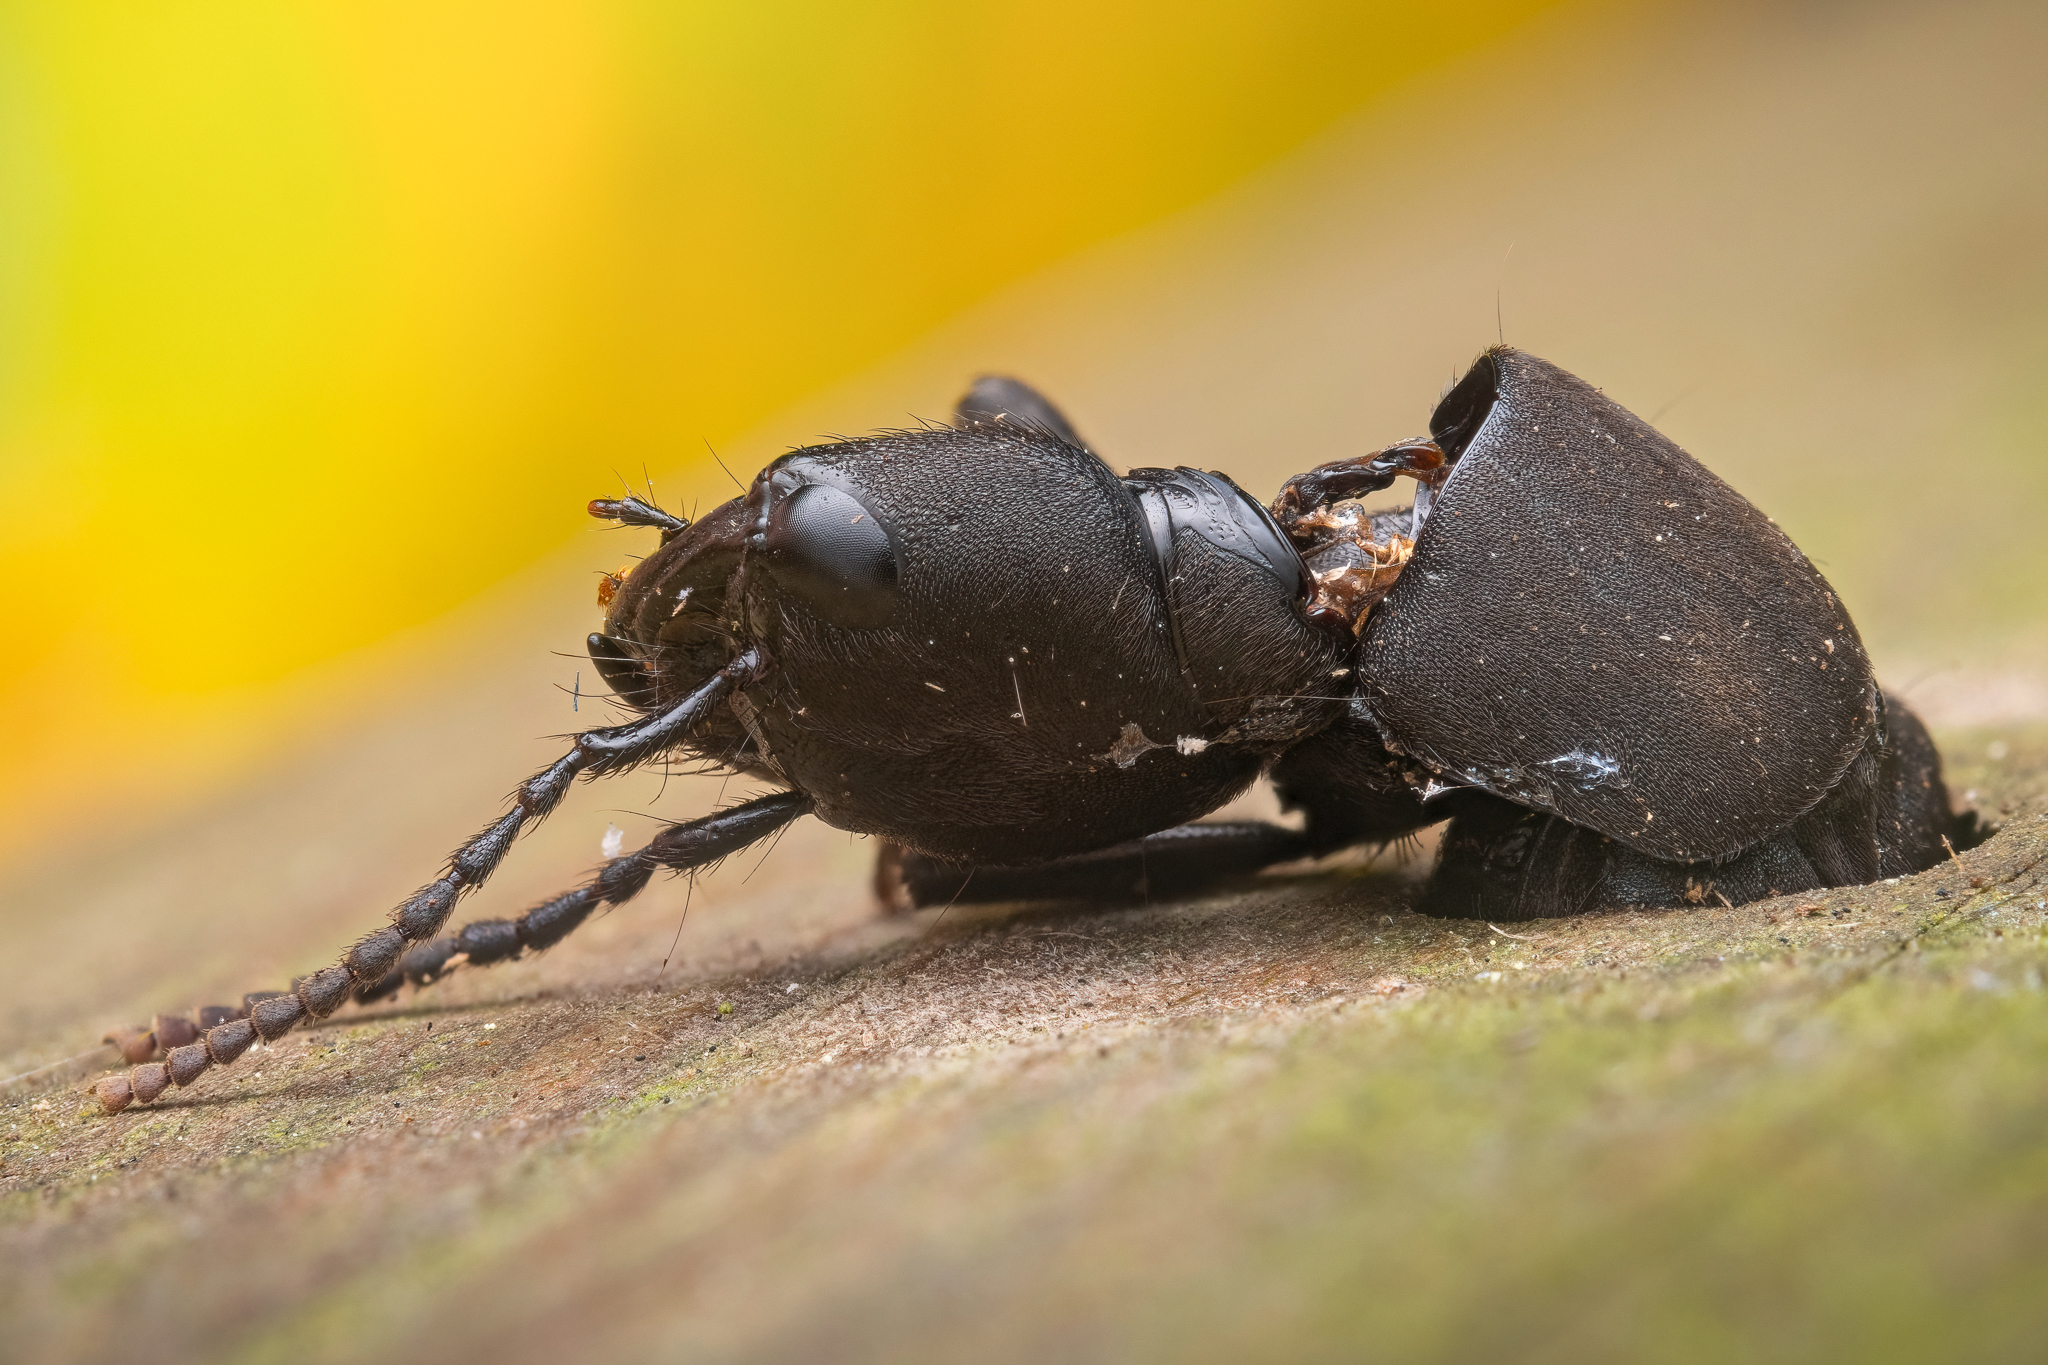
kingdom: Animalia
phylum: Arthropoda
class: Insecta
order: Coleoptera
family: Staphylinidae
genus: Ocypus
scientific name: Ocypus olens
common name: Devil's coach-horse
